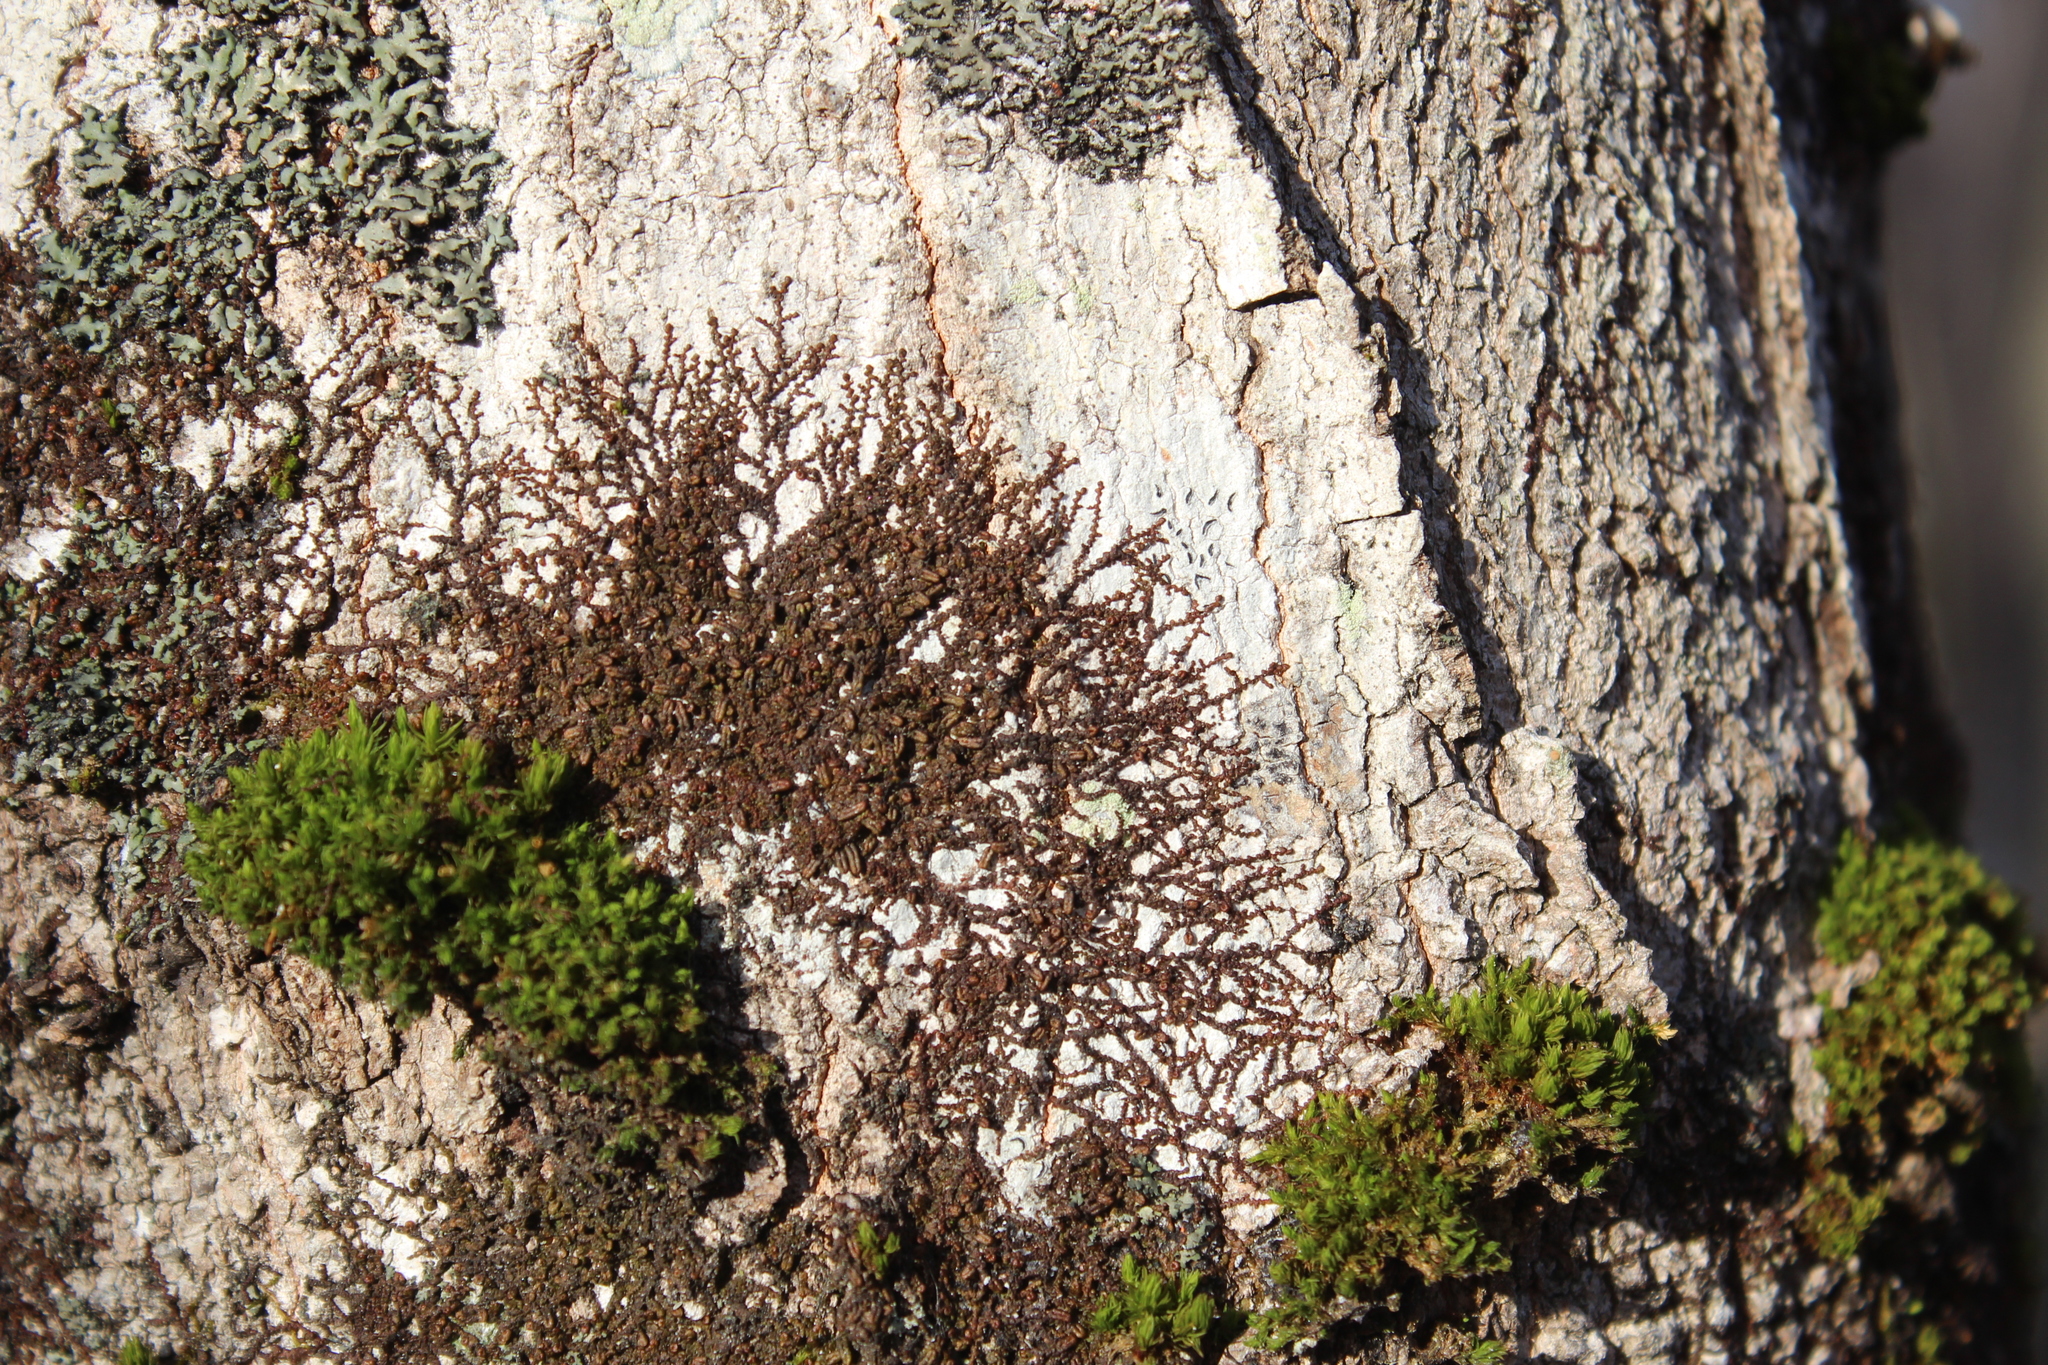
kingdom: Plantae
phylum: Marchantiophyta
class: Jungermanniopsida
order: Porellales
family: Frullaniaceae
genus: Frullania
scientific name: Frullania eboracensis
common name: New york scalewort
